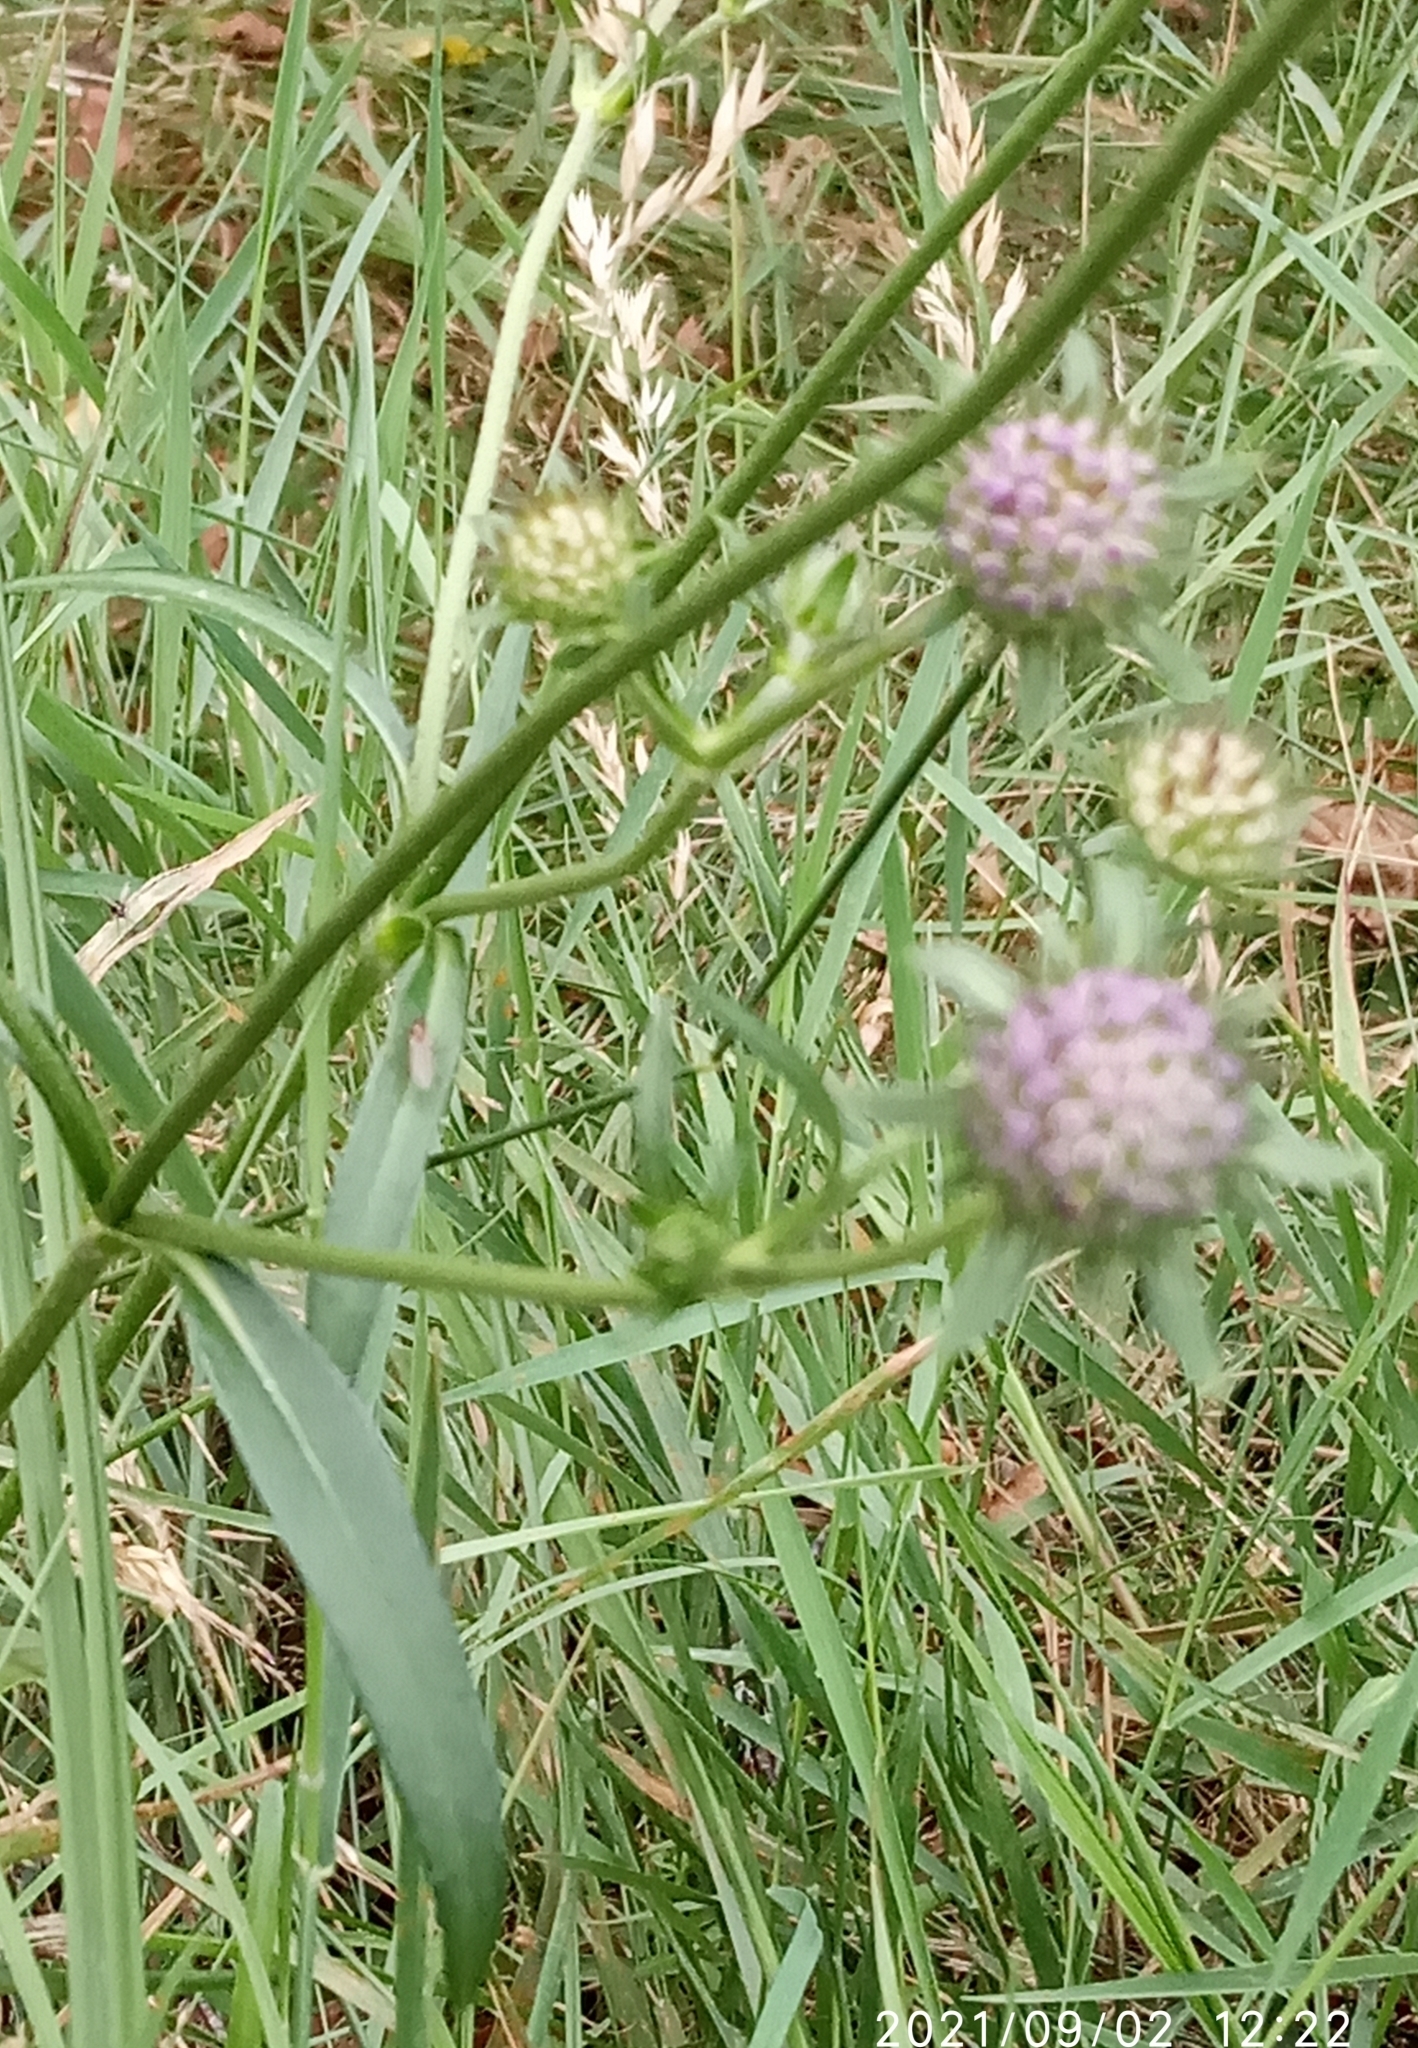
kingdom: Plantae
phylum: Tracheophyta
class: Magnoliopsida
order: Dipsacales
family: Caprifoliaceae
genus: Succisa
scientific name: Succisa pratensis
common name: Devil's-bit
